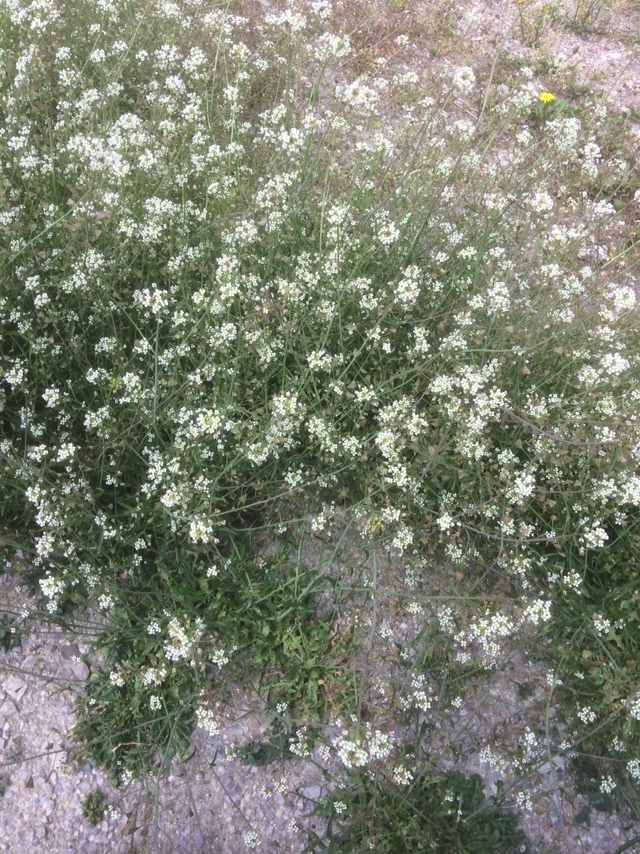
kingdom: Plantae
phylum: Tracheophyta
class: Magnoliopsida
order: Brassicales
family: Brassicaceae
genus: Capsella
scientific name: Capsella bursa-pastoris
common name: Shepherd's purse
